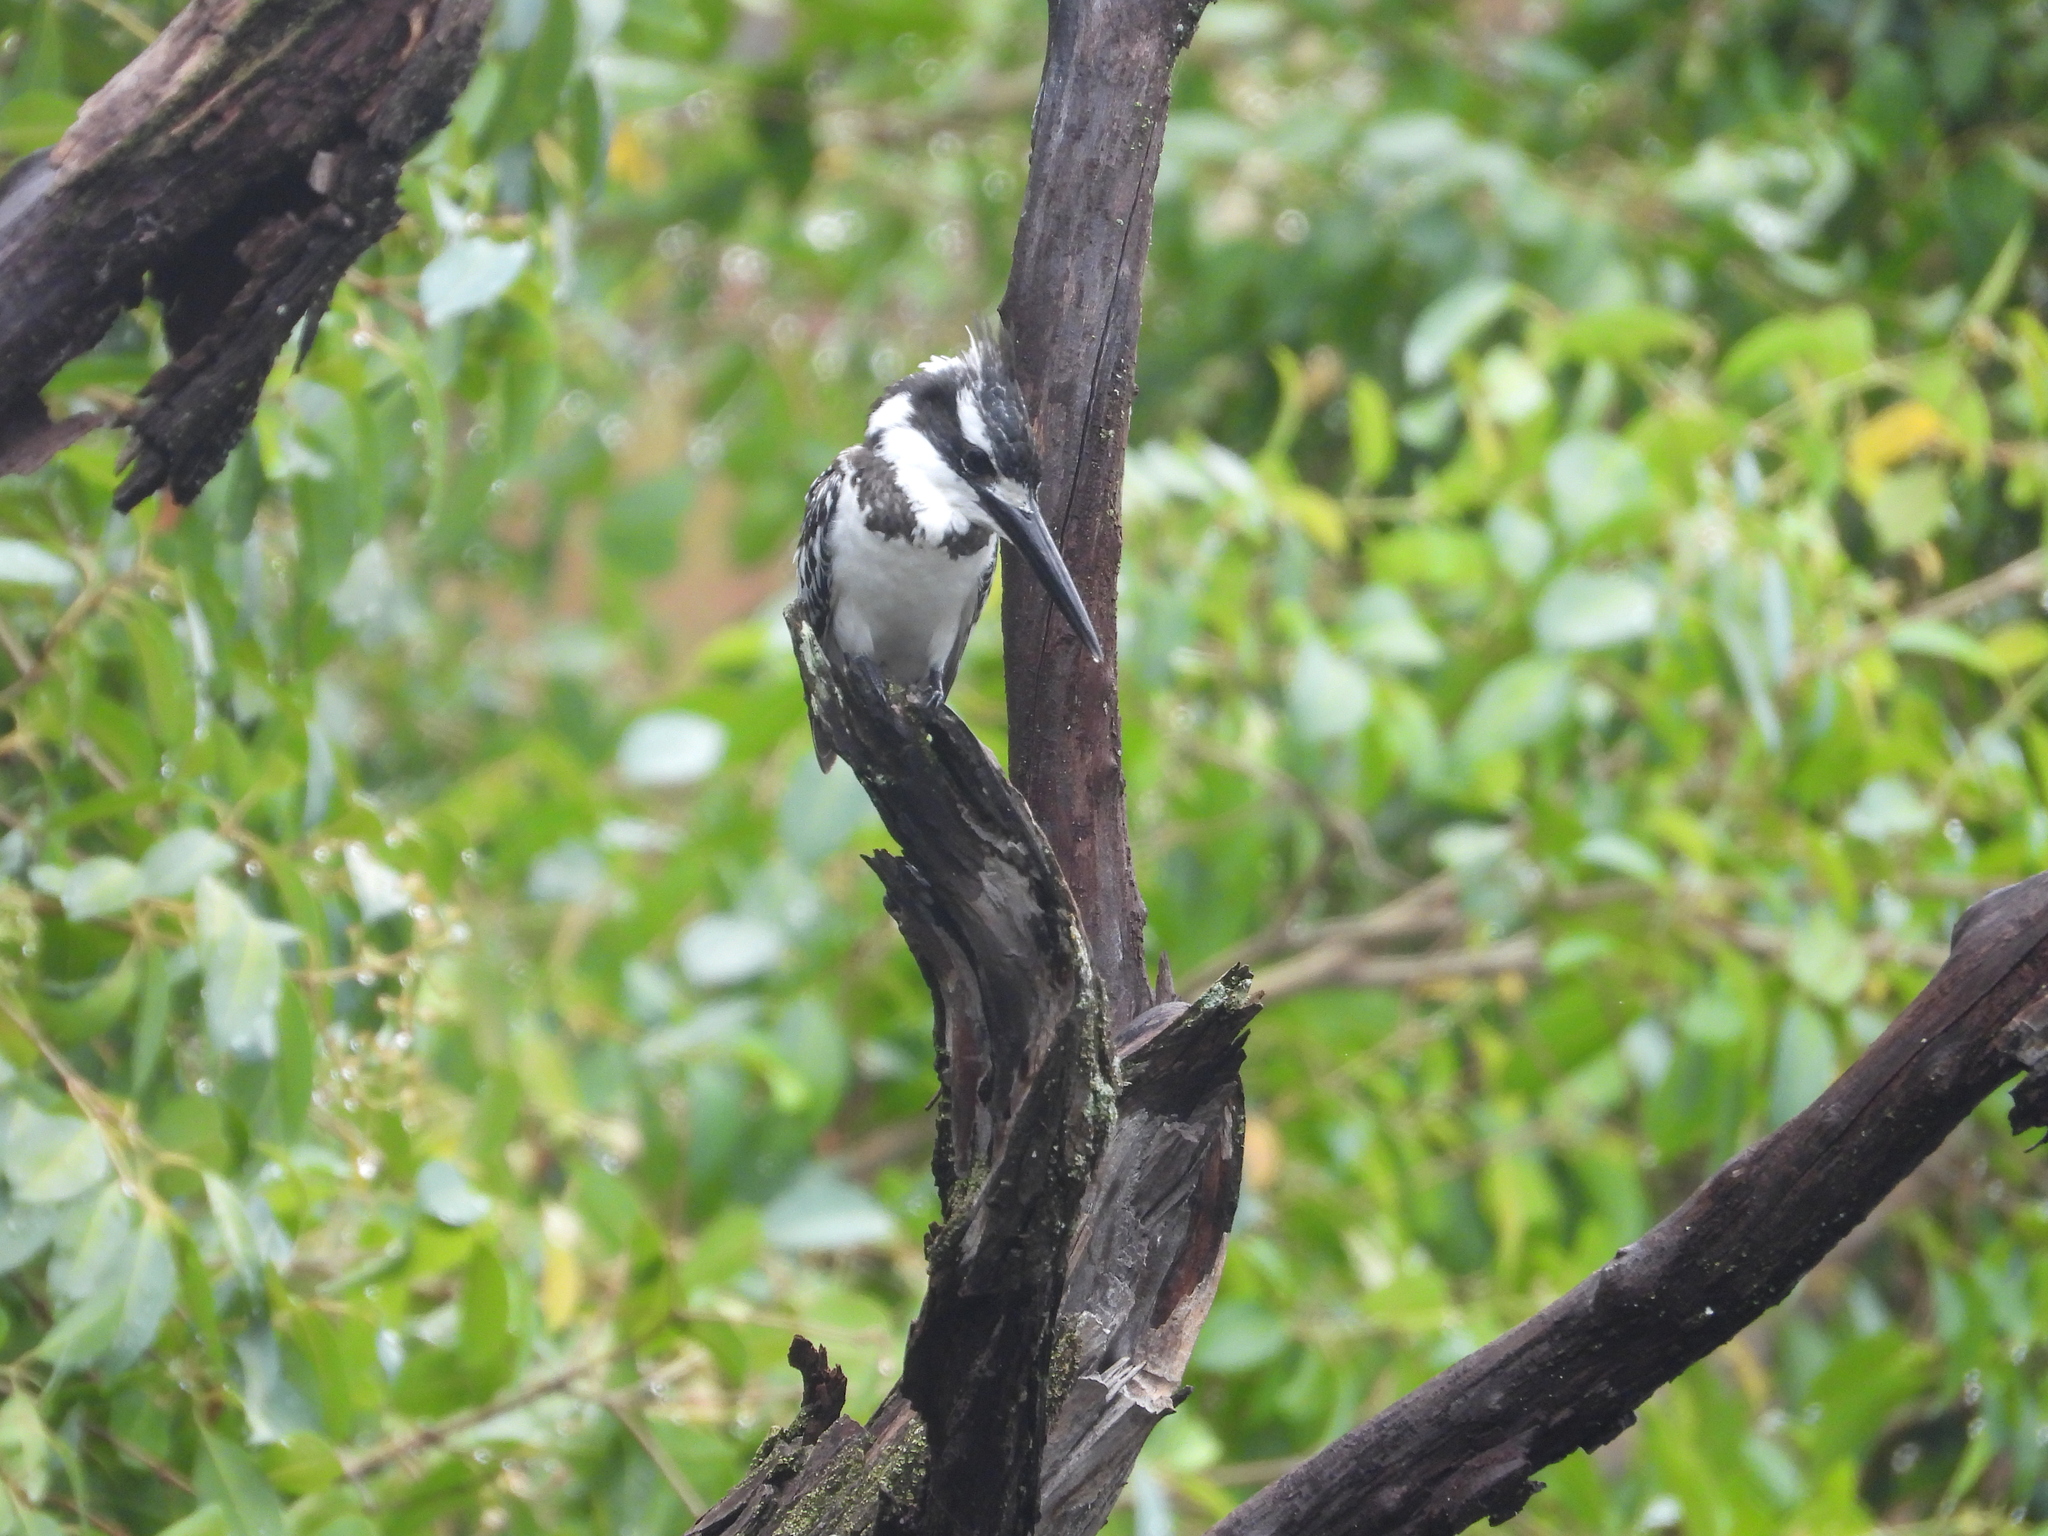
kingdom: Animalia
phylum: Chordata
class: Aves
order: Coraciiformes
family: Alcedinidae
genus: Ceryle
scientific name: Ceryle rudis
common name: Pied kingfisher
